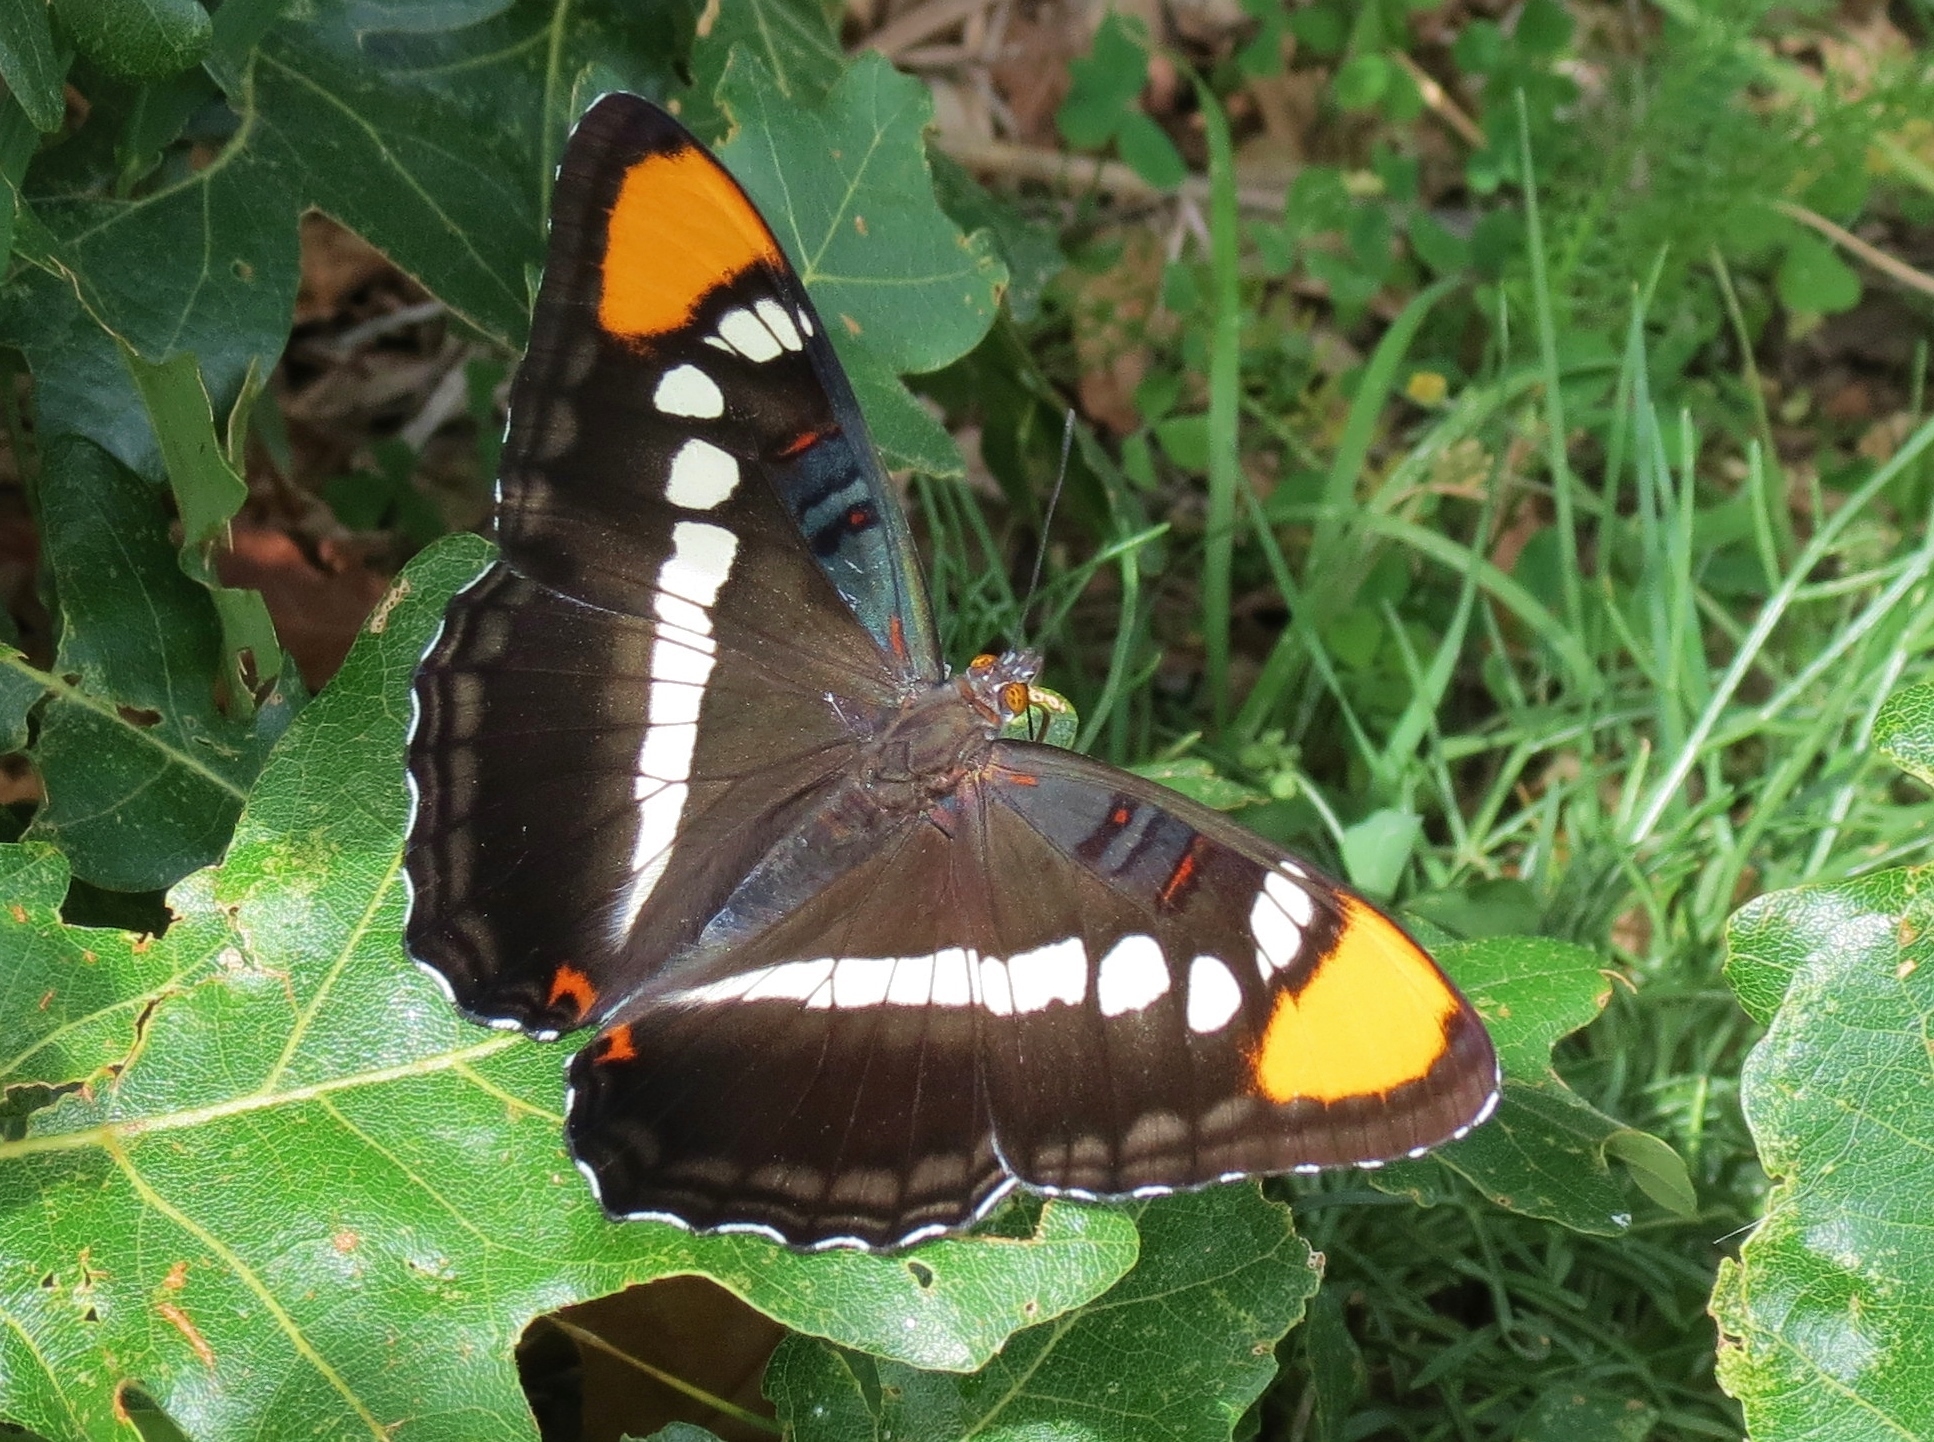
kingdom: Animalia
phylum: Arthropoda
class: Insecta
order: Lepidoptera
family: Nymphalidae
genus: Limenitis
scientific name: Limenitis bredowii
